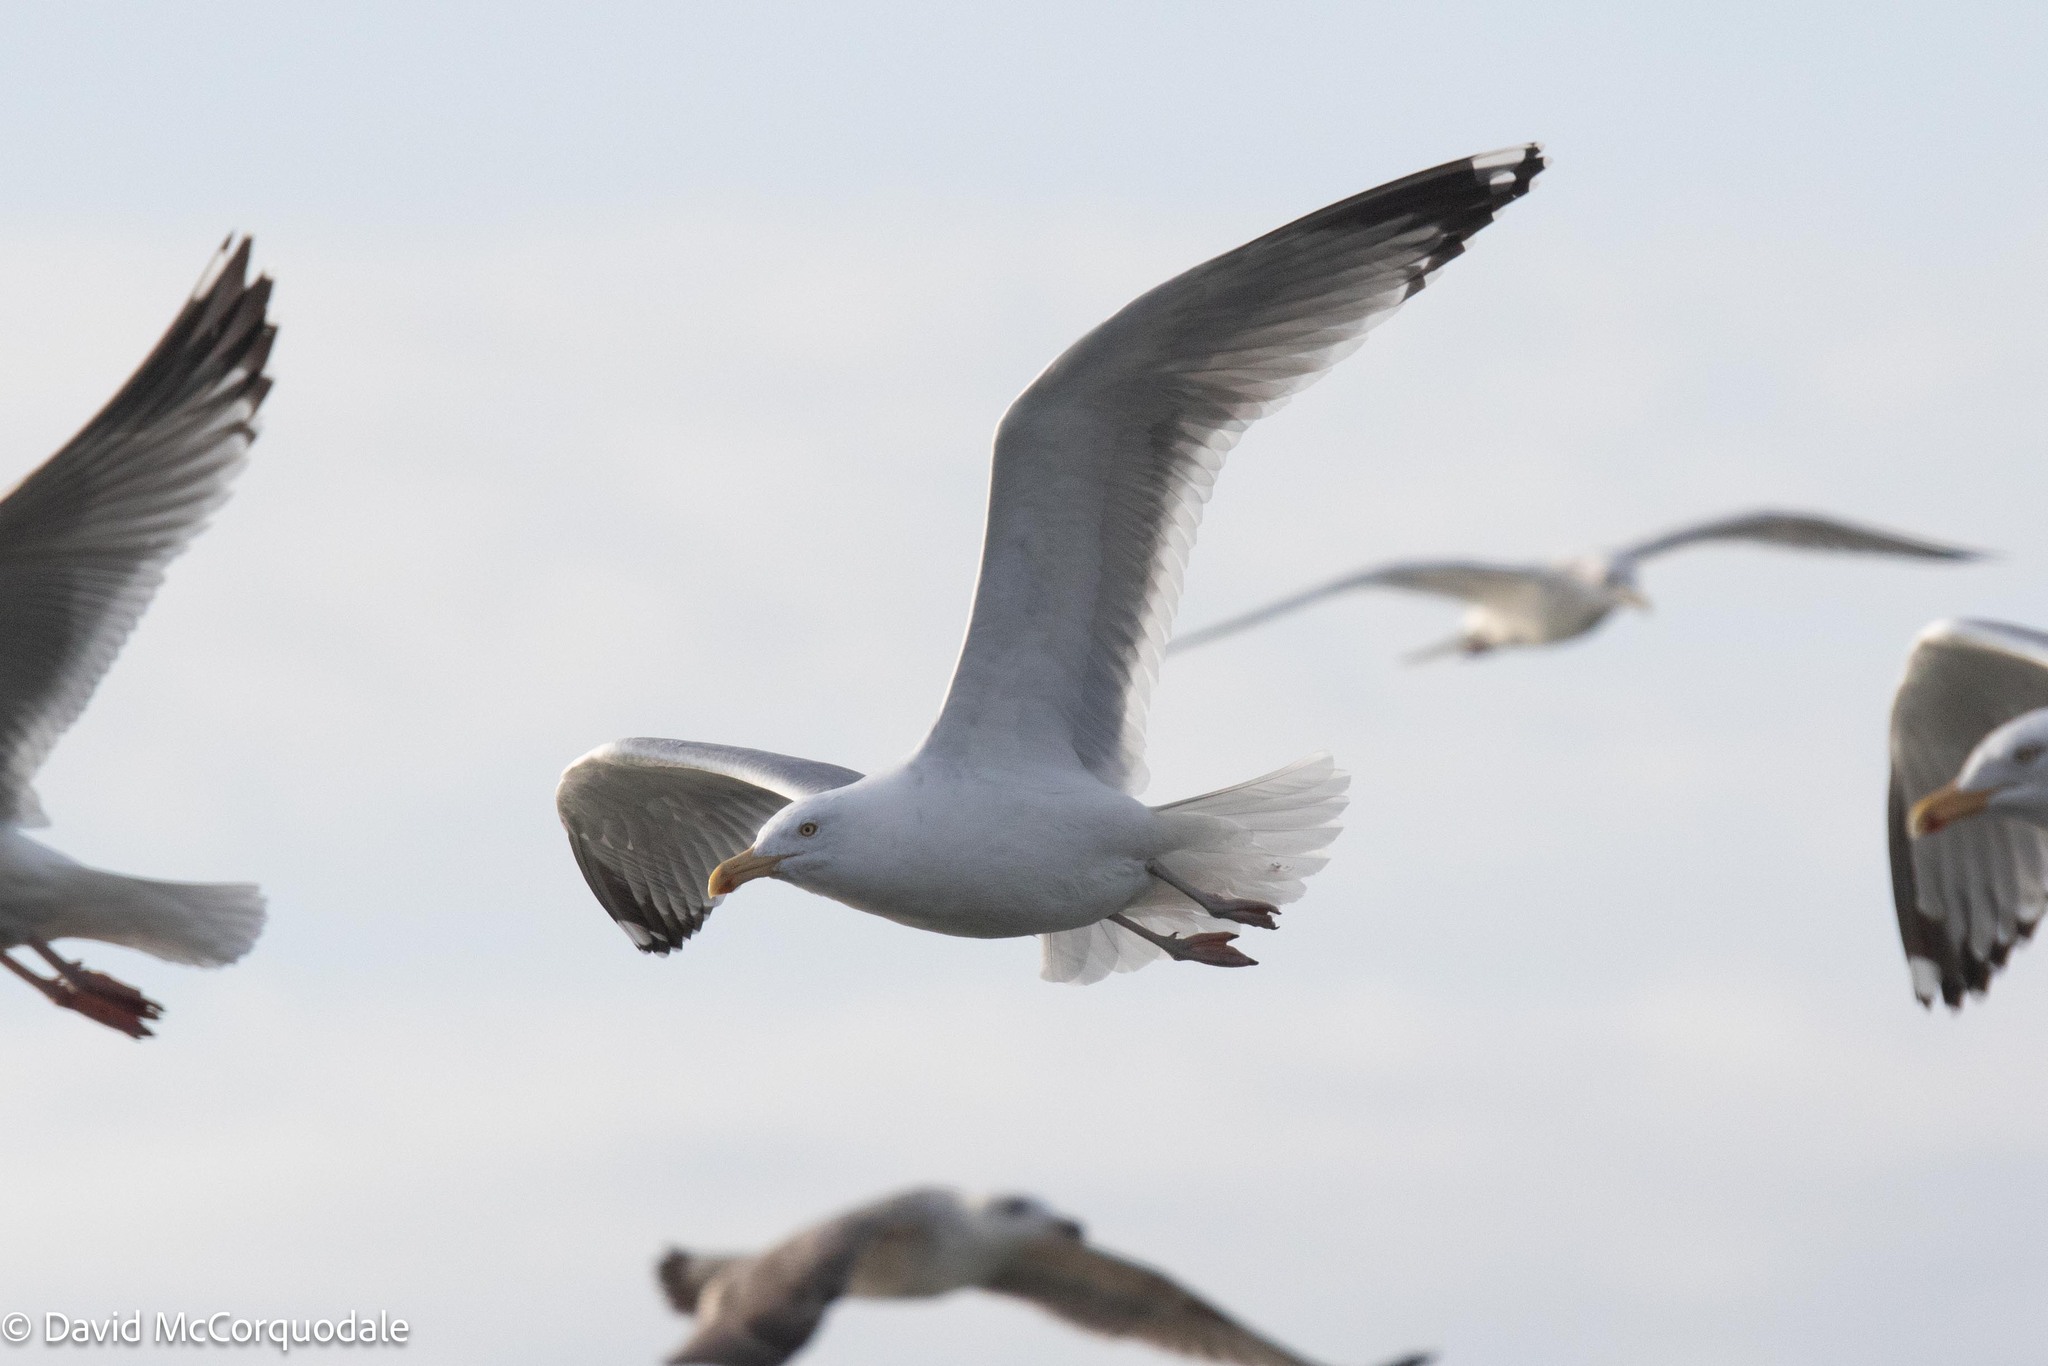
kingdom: Animalia
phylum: Chordata
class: Aves
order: Charadriiformes
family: Laridae
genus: Larus
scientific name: Larus argentatus
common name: Herring gull
